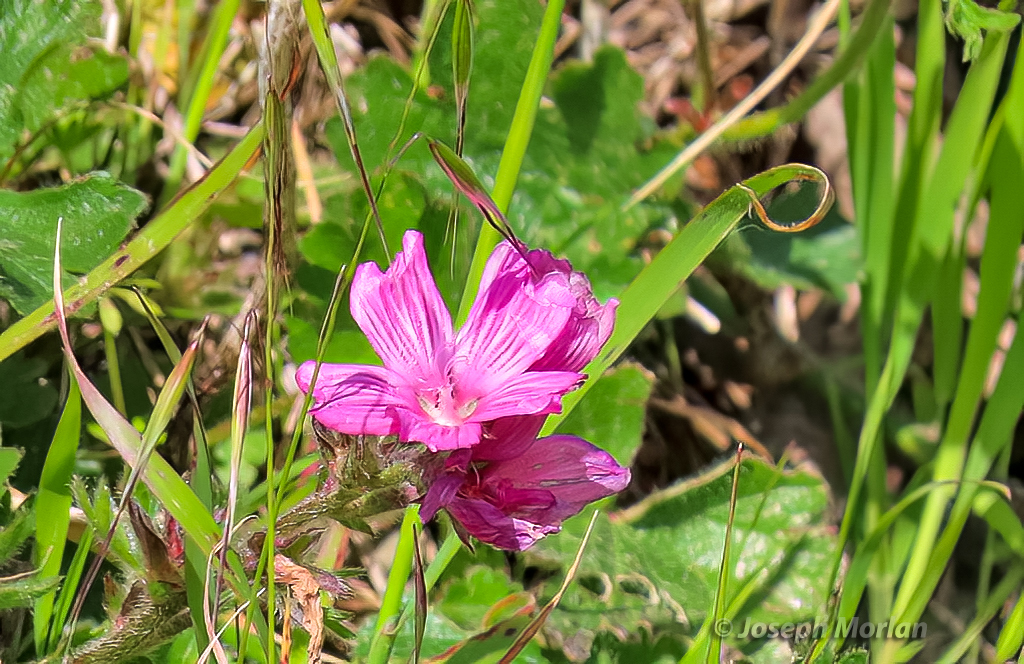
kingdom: Plantae
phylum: Tracheophyta
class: Magnoliopsida
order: Malvales
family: Malvaceae
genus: Sidalcea
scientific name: Sidalcea malviflora
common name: Greek mallow
